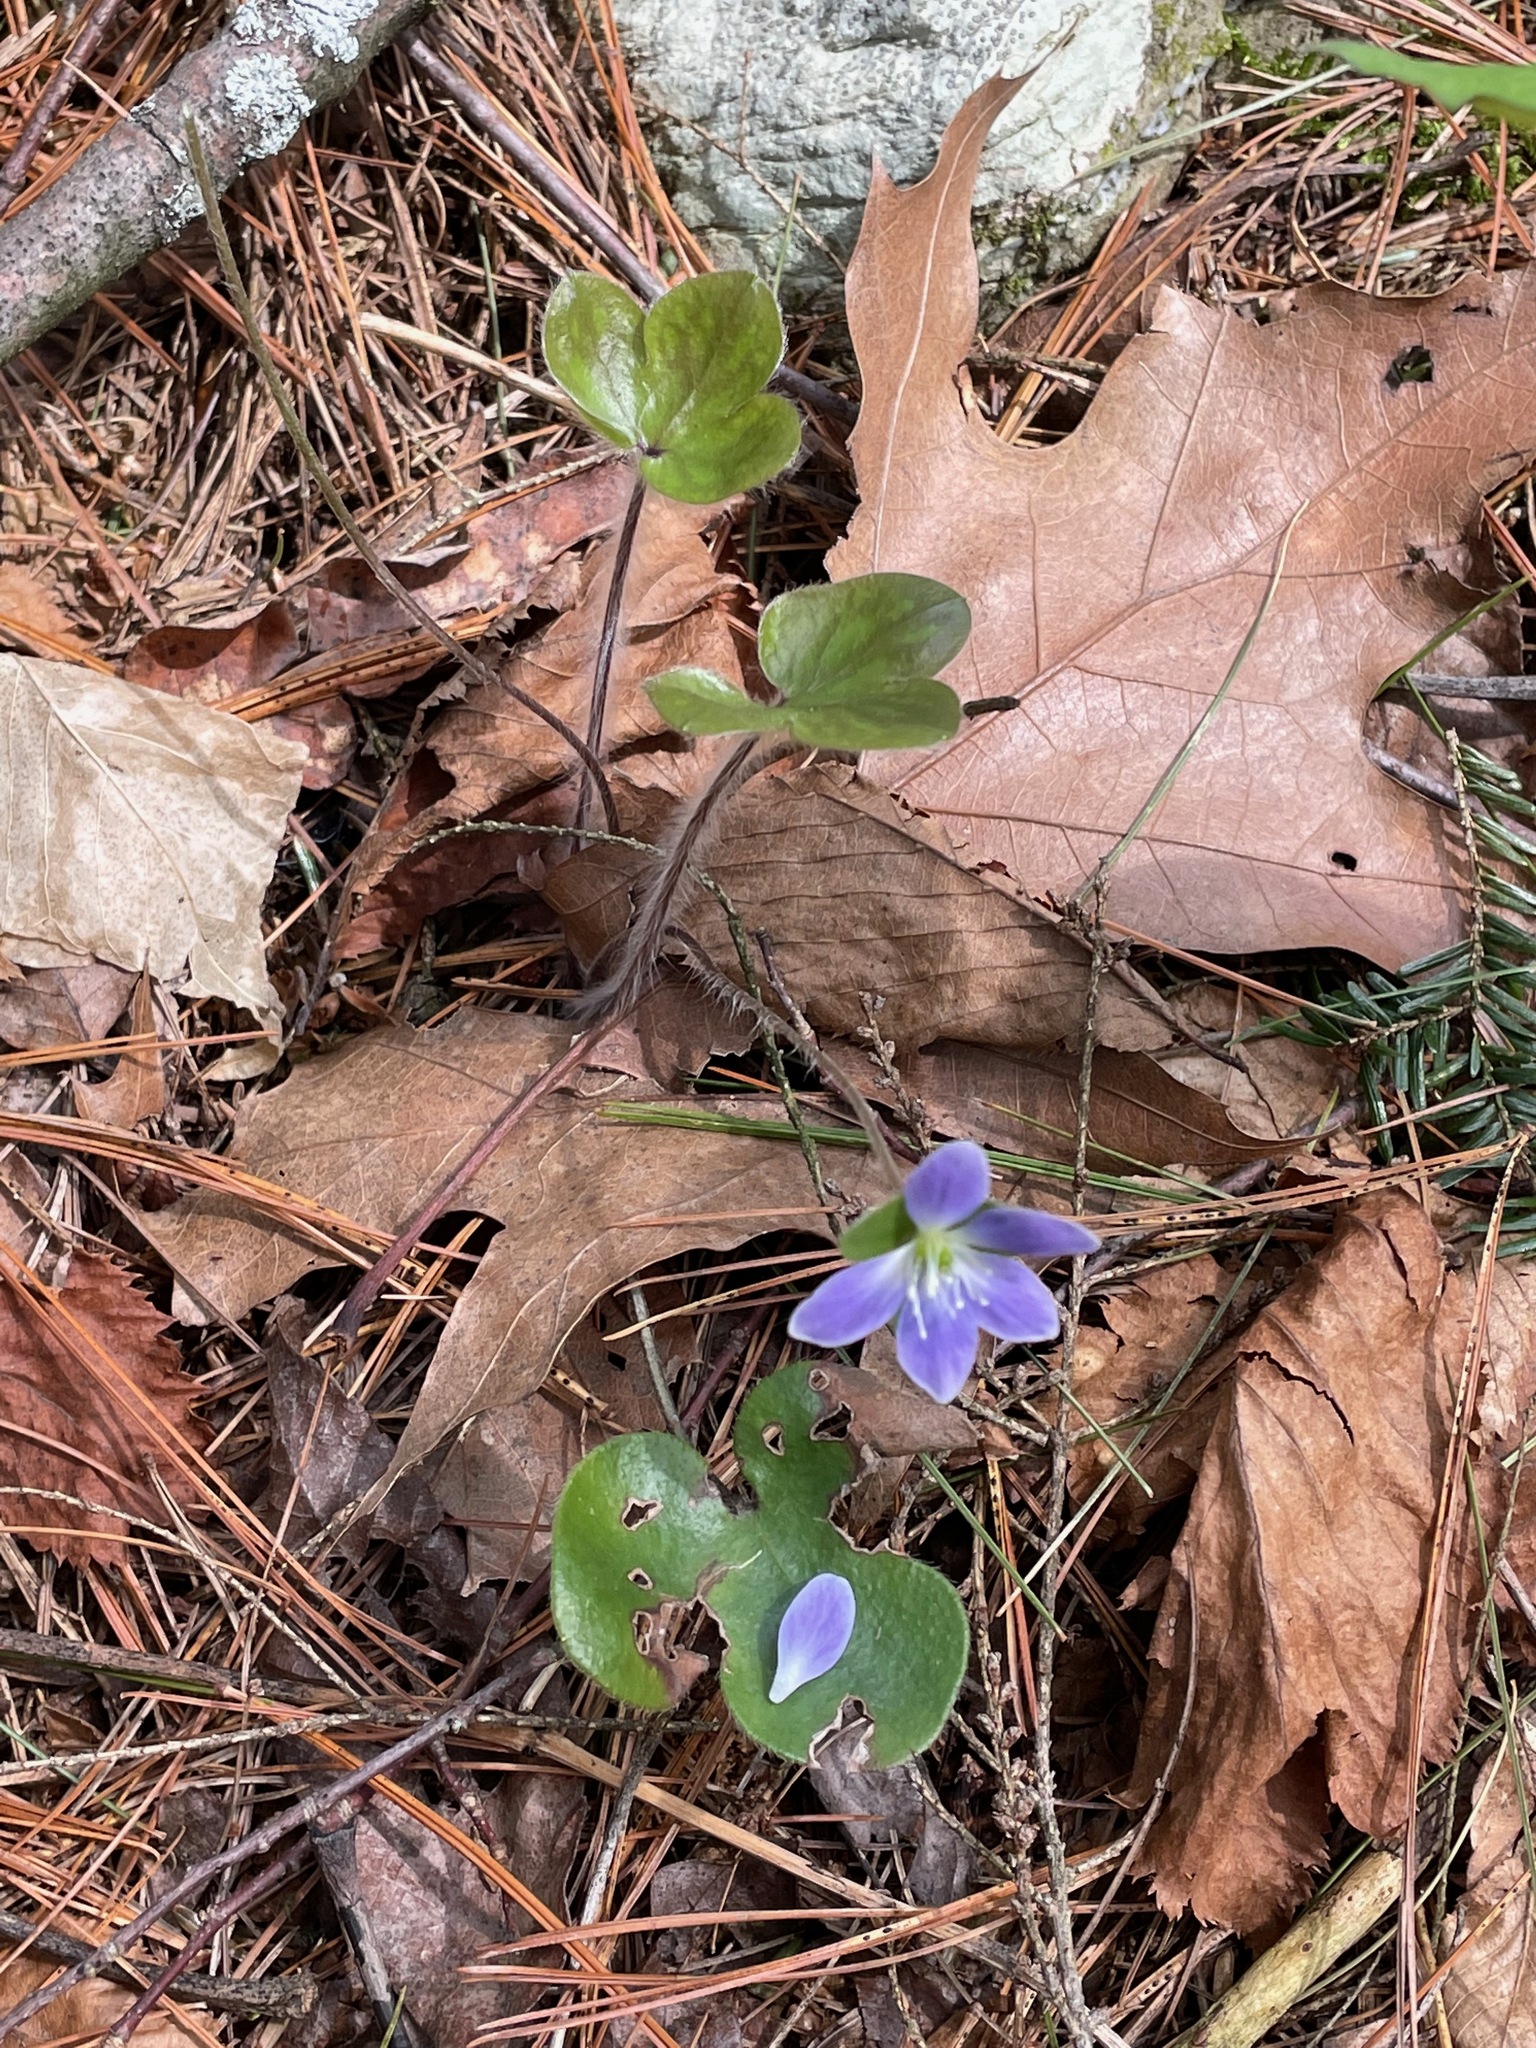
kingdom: Plantae
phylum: Tracheophyta
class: Magnoliopsida
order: Ranunculales
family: Ranunculaceae
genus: Hepatica
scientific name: Hepatica americana
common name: American hepatica
